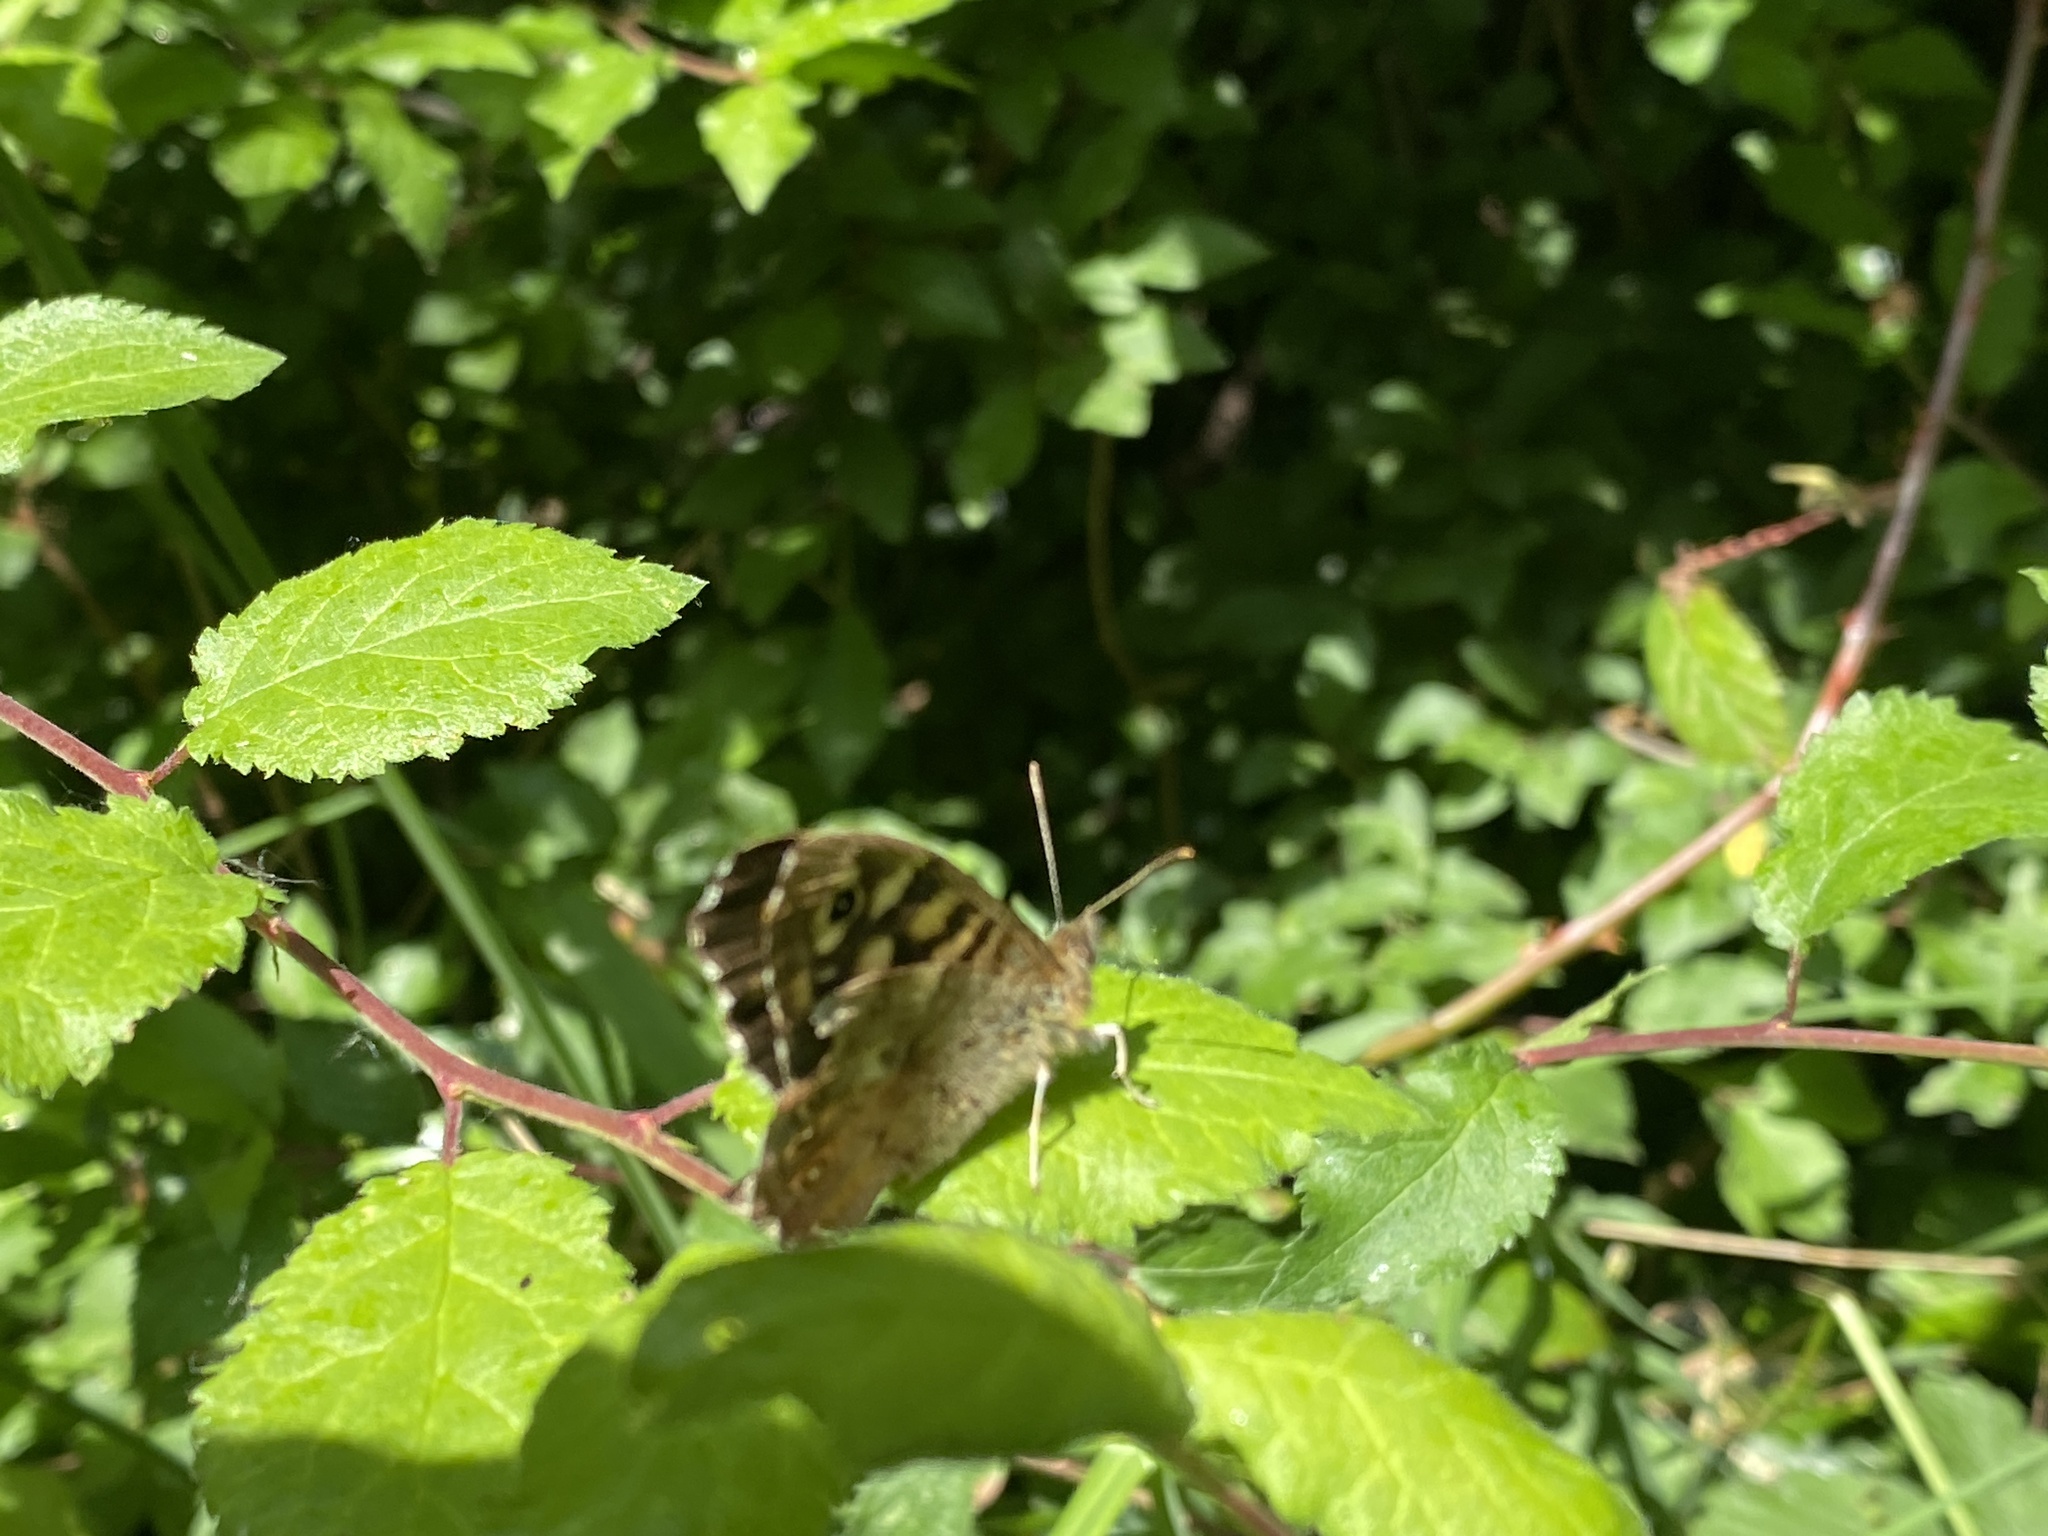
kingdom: Animalia
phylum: Arthropoda
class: Insecta
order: Lepidoptera
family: Nymphalidae
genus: Pararge
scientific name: Pararge aegeria
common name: Speckled wood
